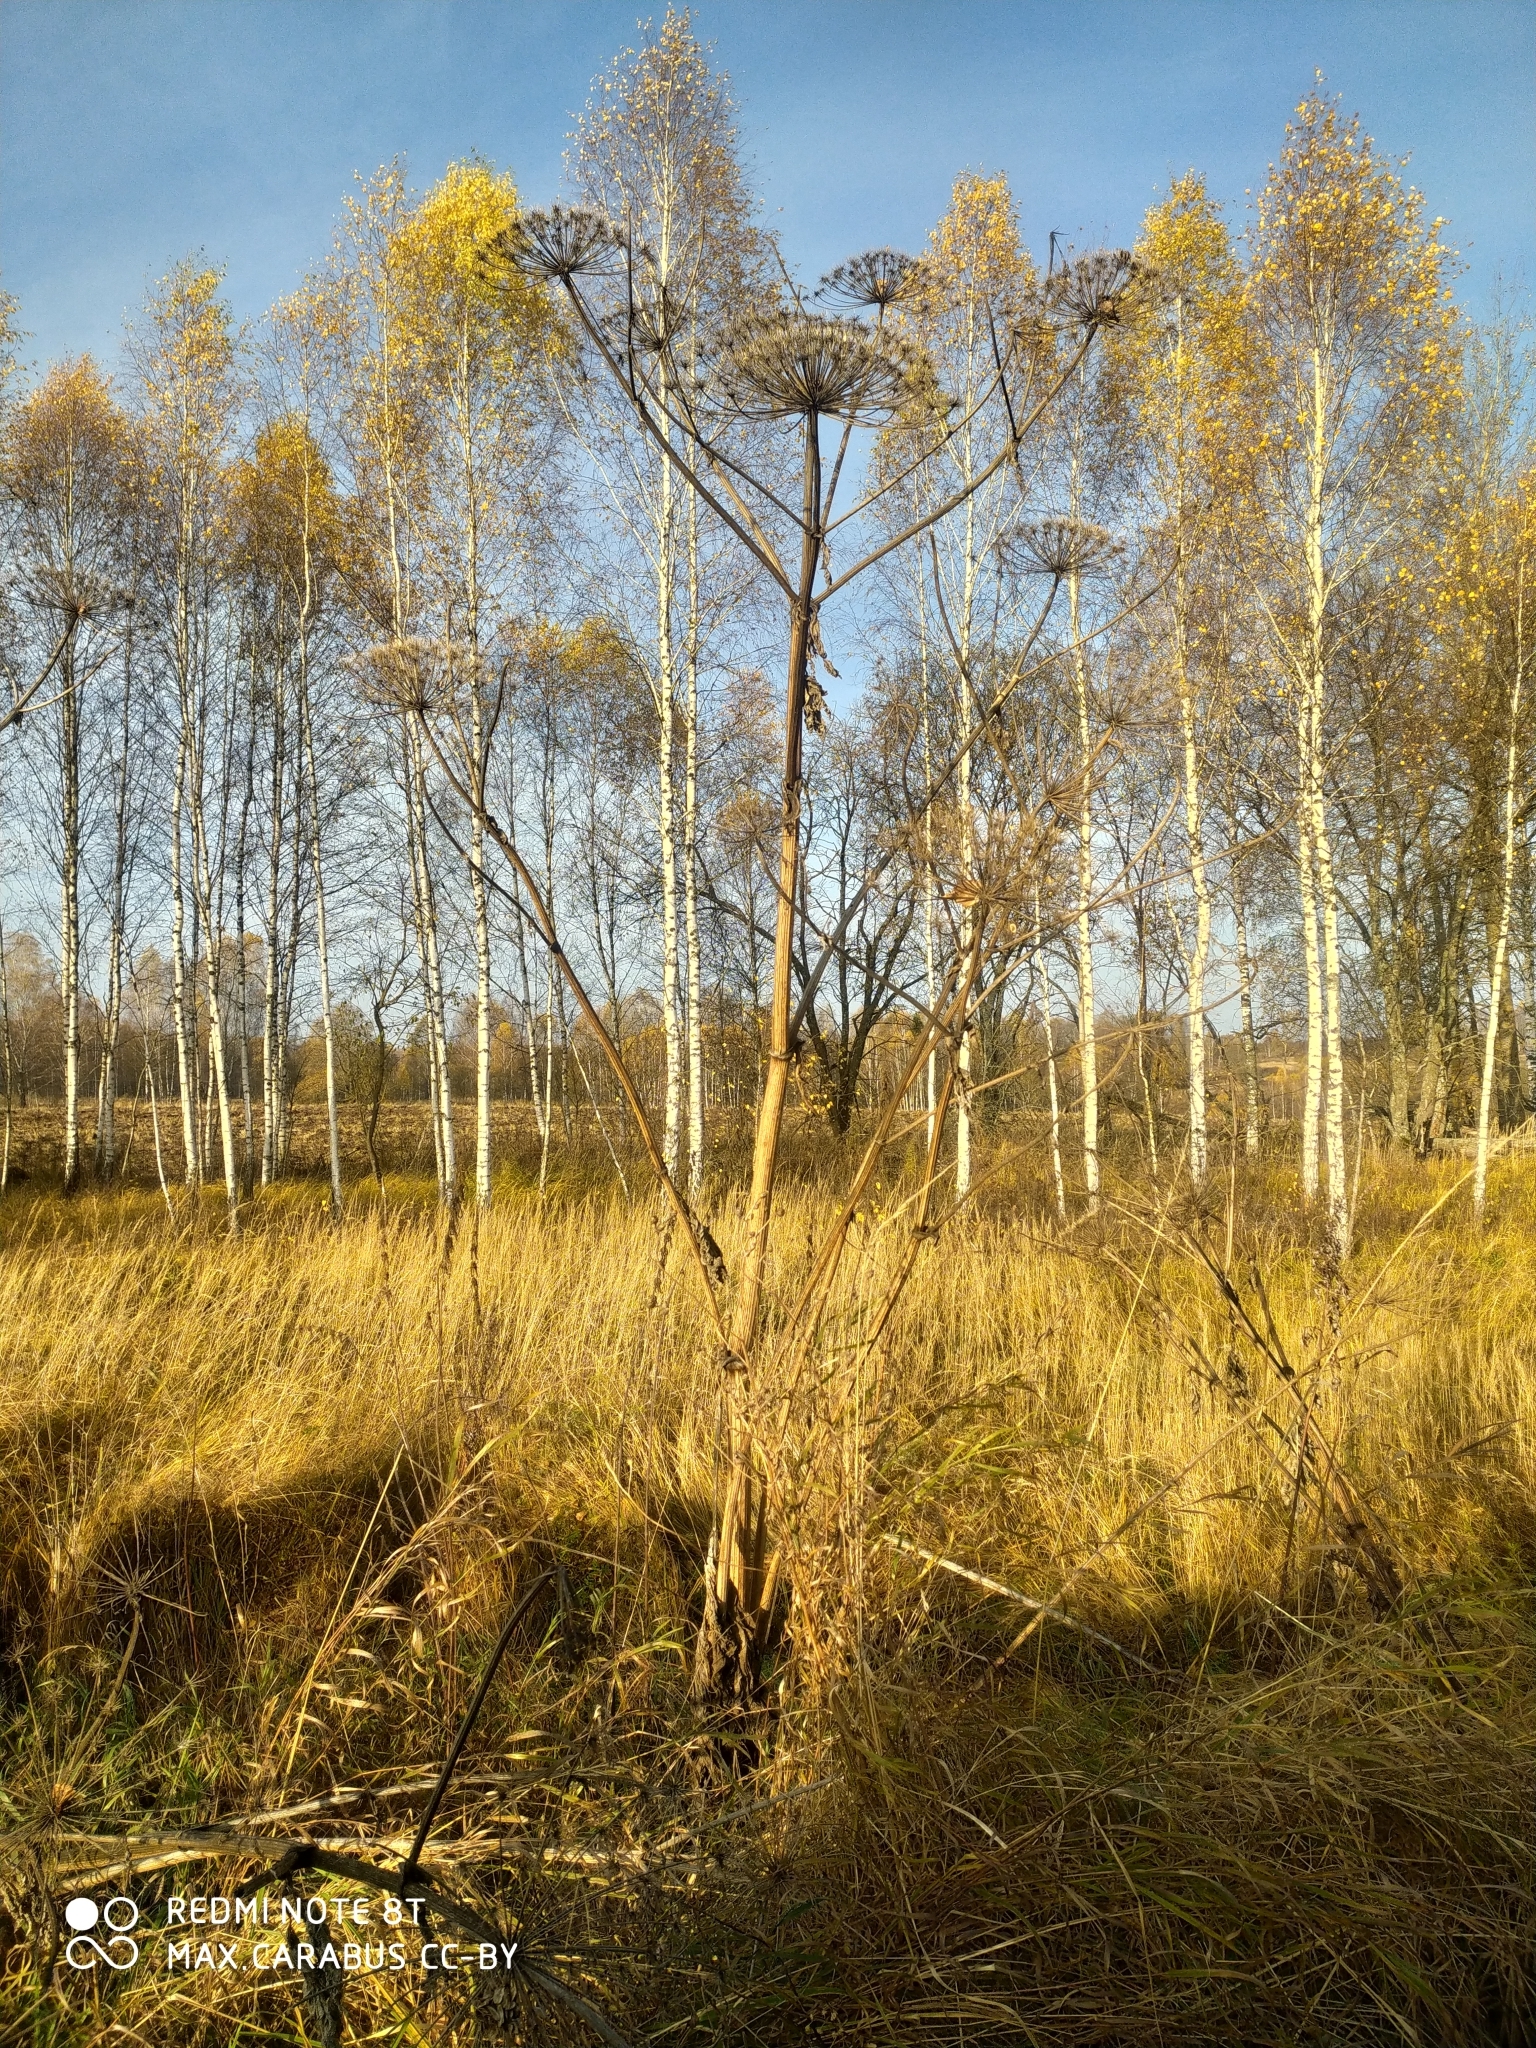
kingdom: Plantae
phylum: Tracheophyta
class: Magnoliopsida
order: Apiales
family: Apiaceae
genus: Heracleum
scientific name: Heracleum sosnowskyi
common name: Sosnowsky's hogweed
